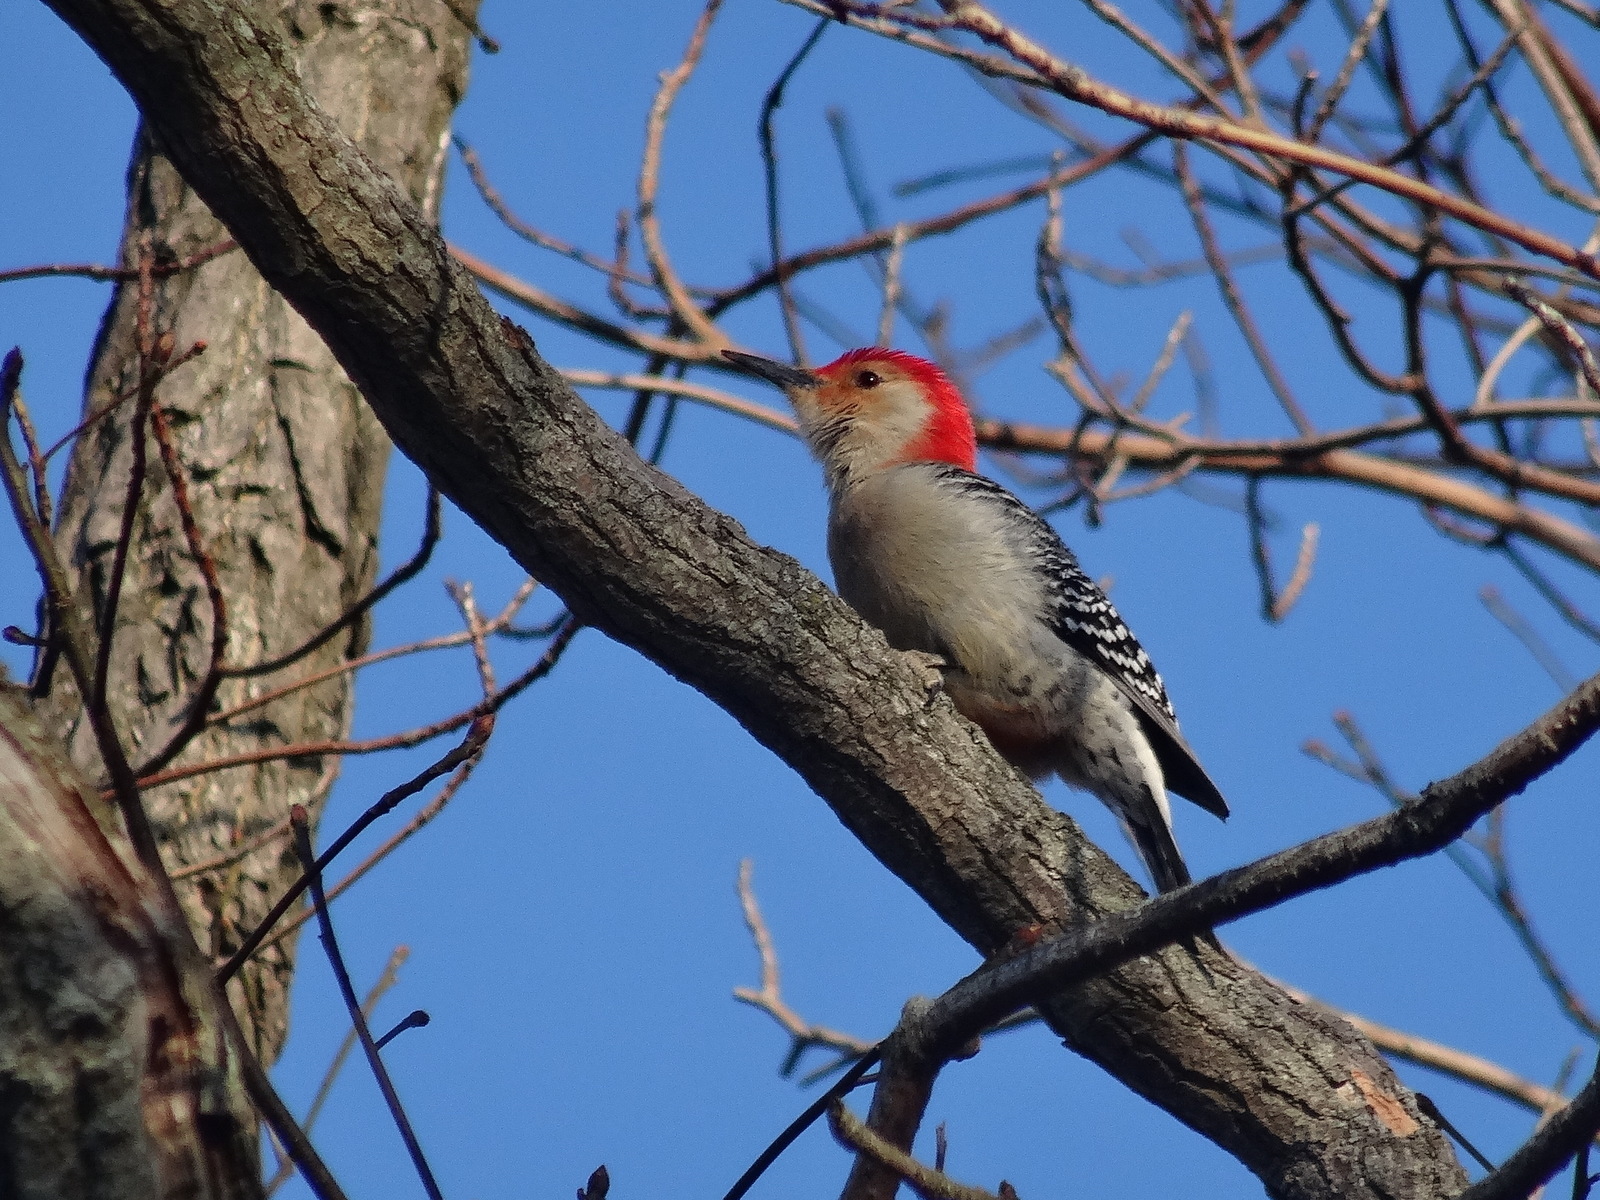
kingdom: Animalia
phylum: Chordata
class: Aves
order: Piciformes
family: Picidae
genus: Melanerpes
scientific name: Melanerpes carolinus
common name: Red-bellied woodpecker
